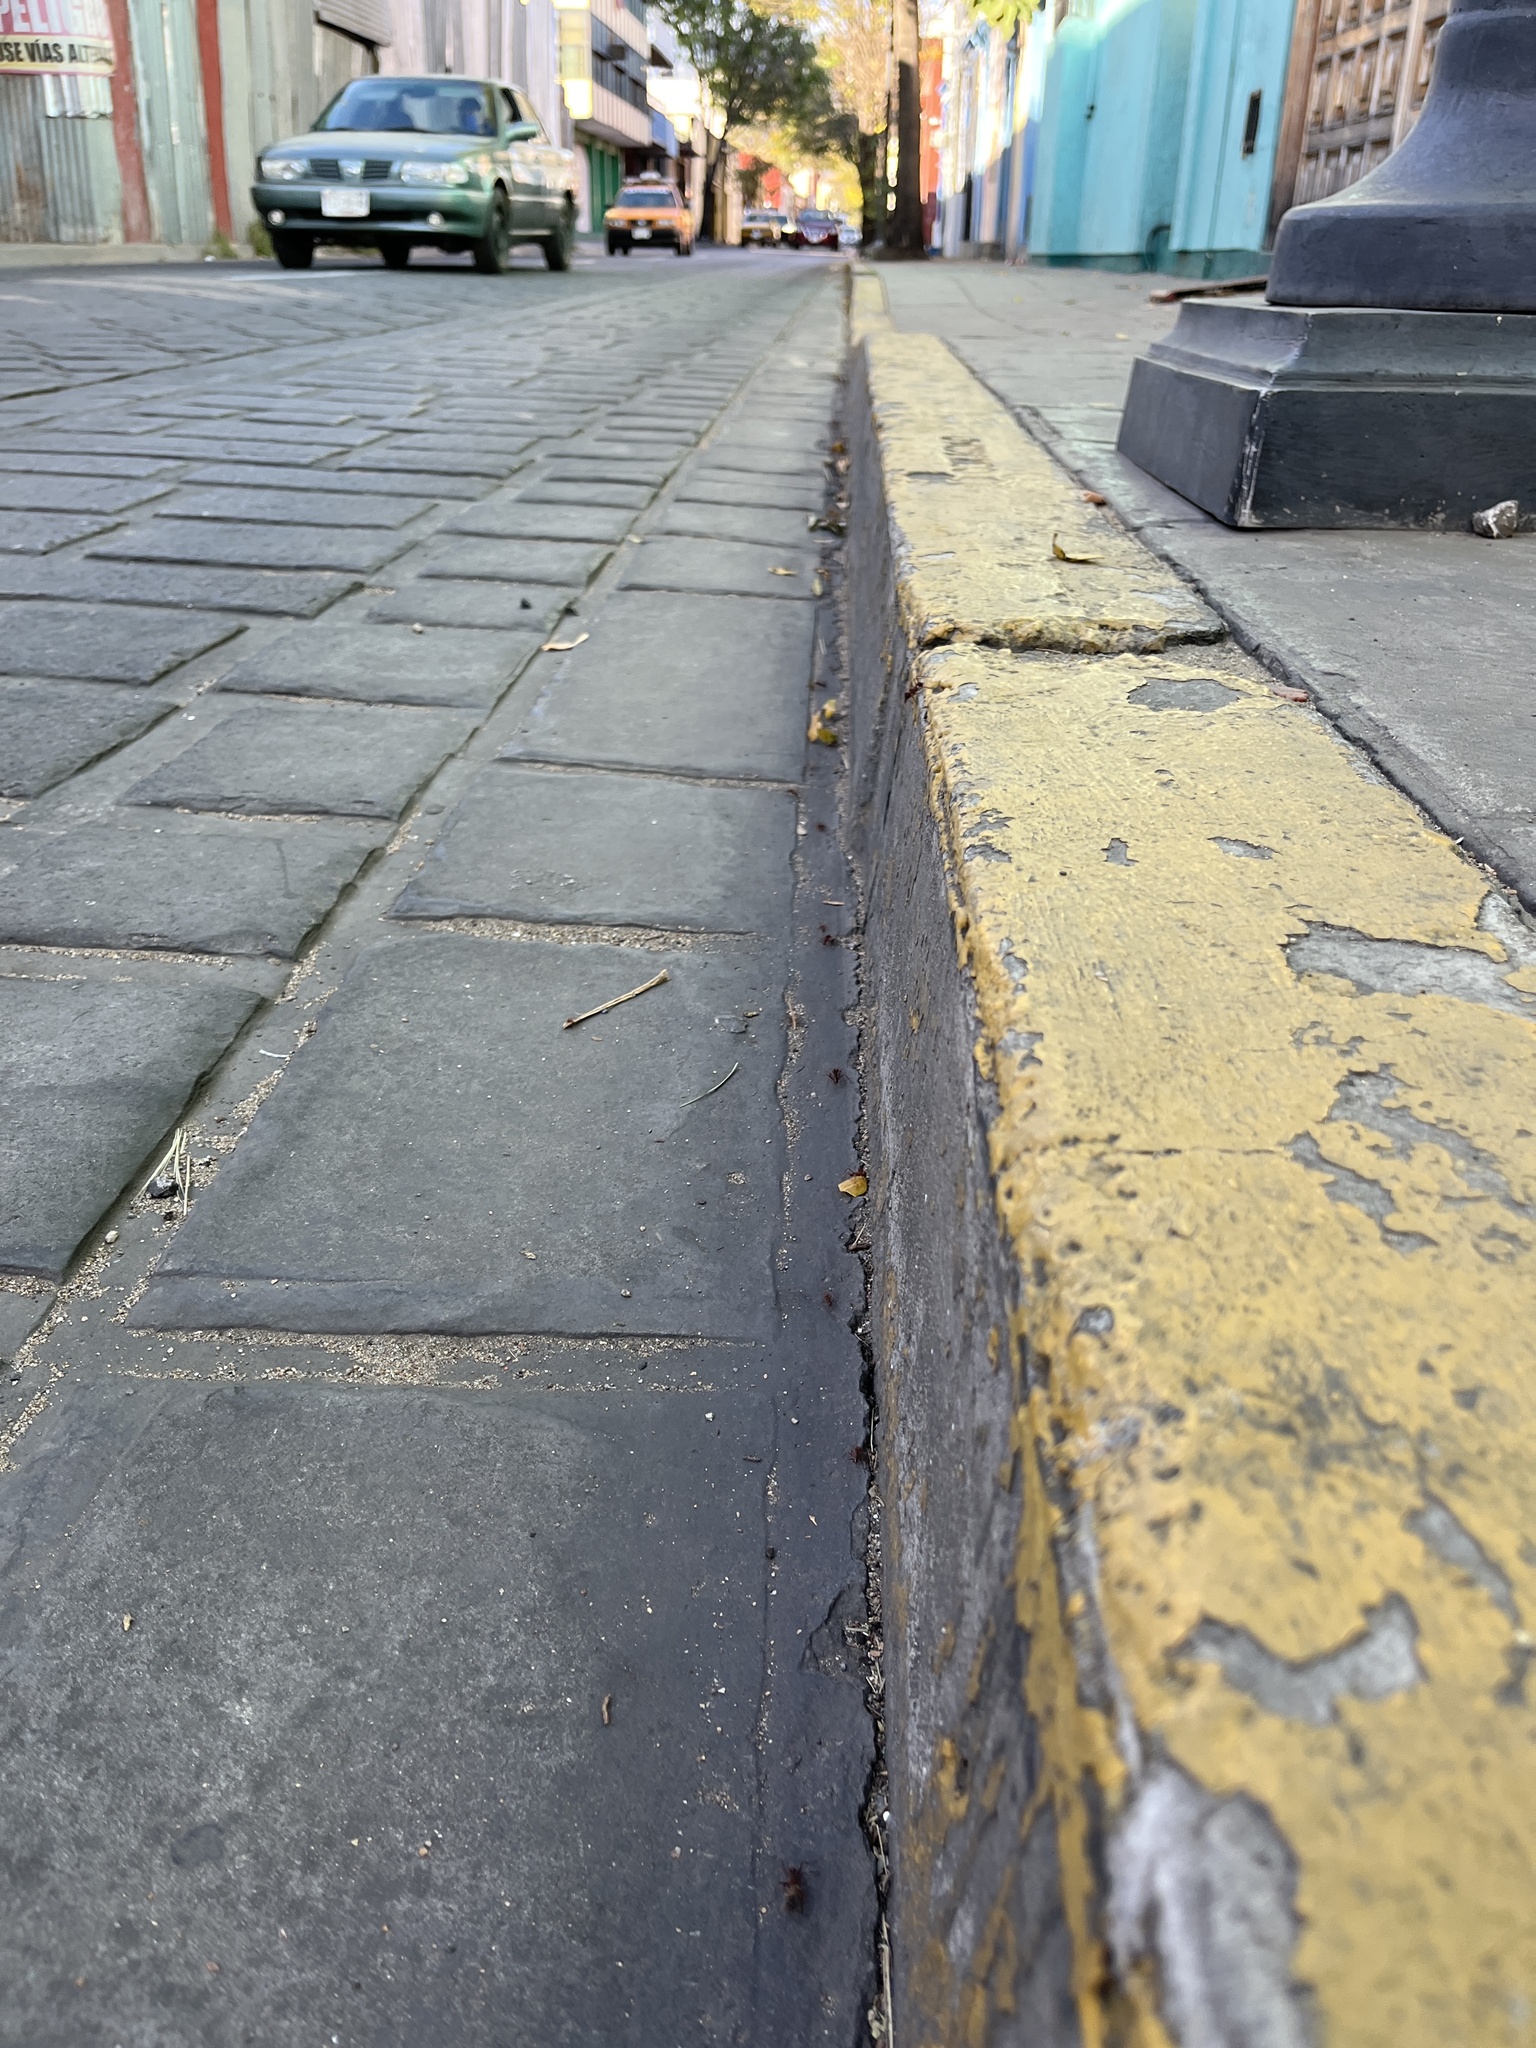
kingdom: Animalia
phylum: Arthropoda
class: Insecta
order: Hymenoptera
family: Formicidae
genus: Atta
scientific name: Atta mexicana
